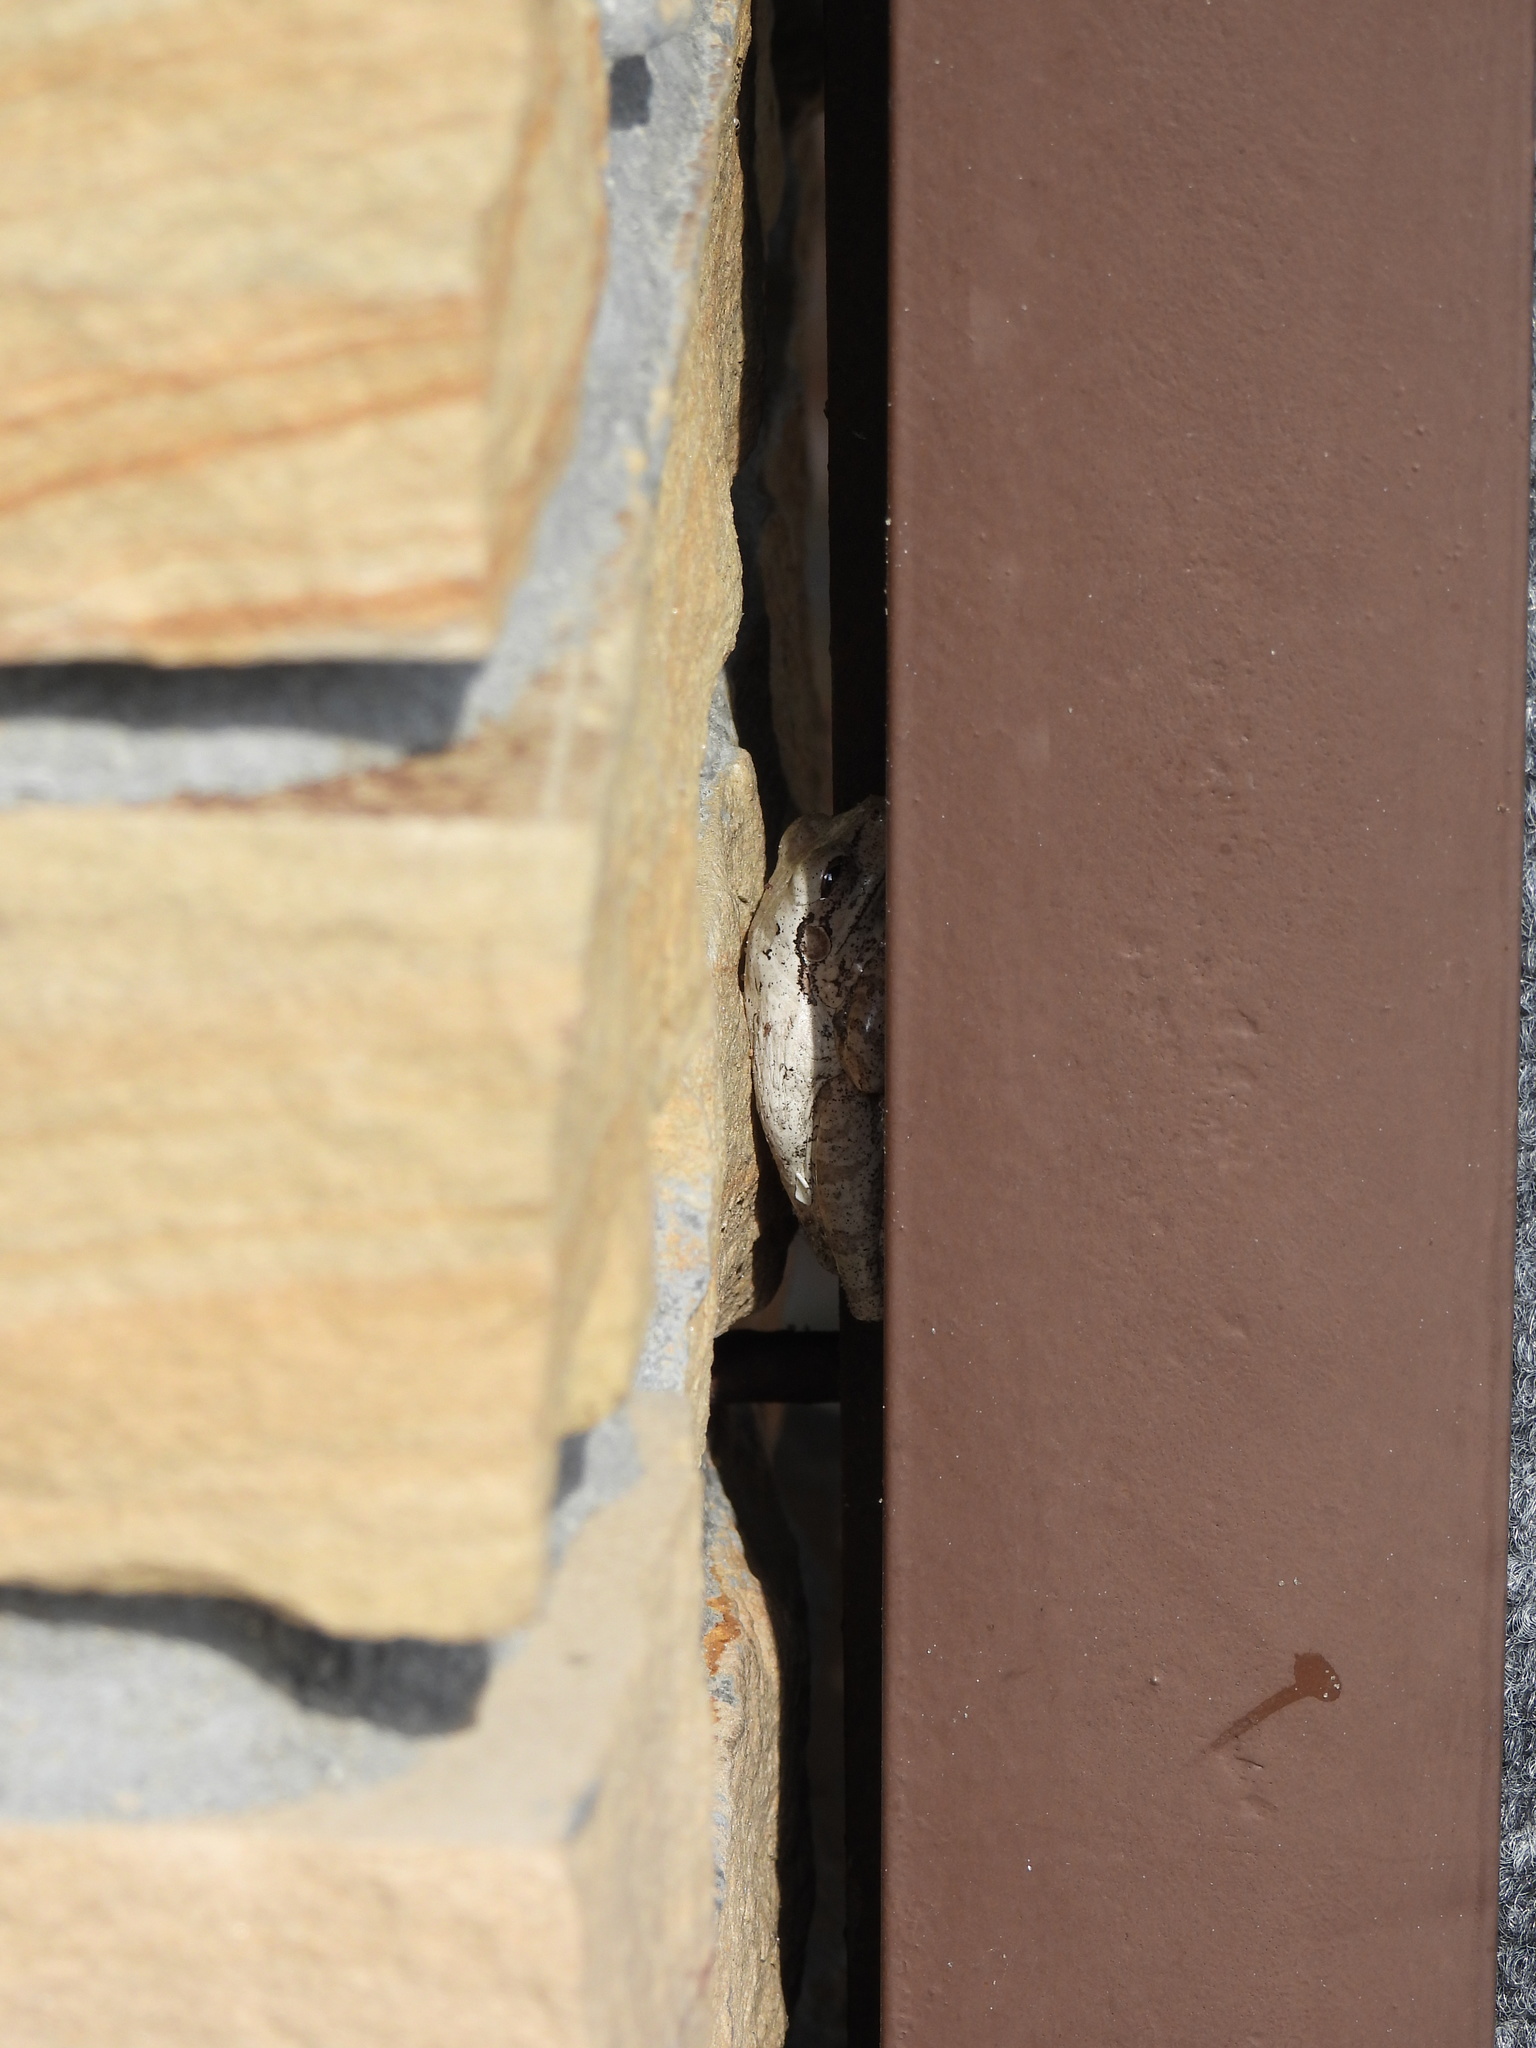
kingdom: Animalia
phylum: Chordata
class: Amphibia
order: Anura
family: Hylidae
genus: Osteopilus
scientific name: Osteopilus septentrionalis
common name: Cuban treefrog
